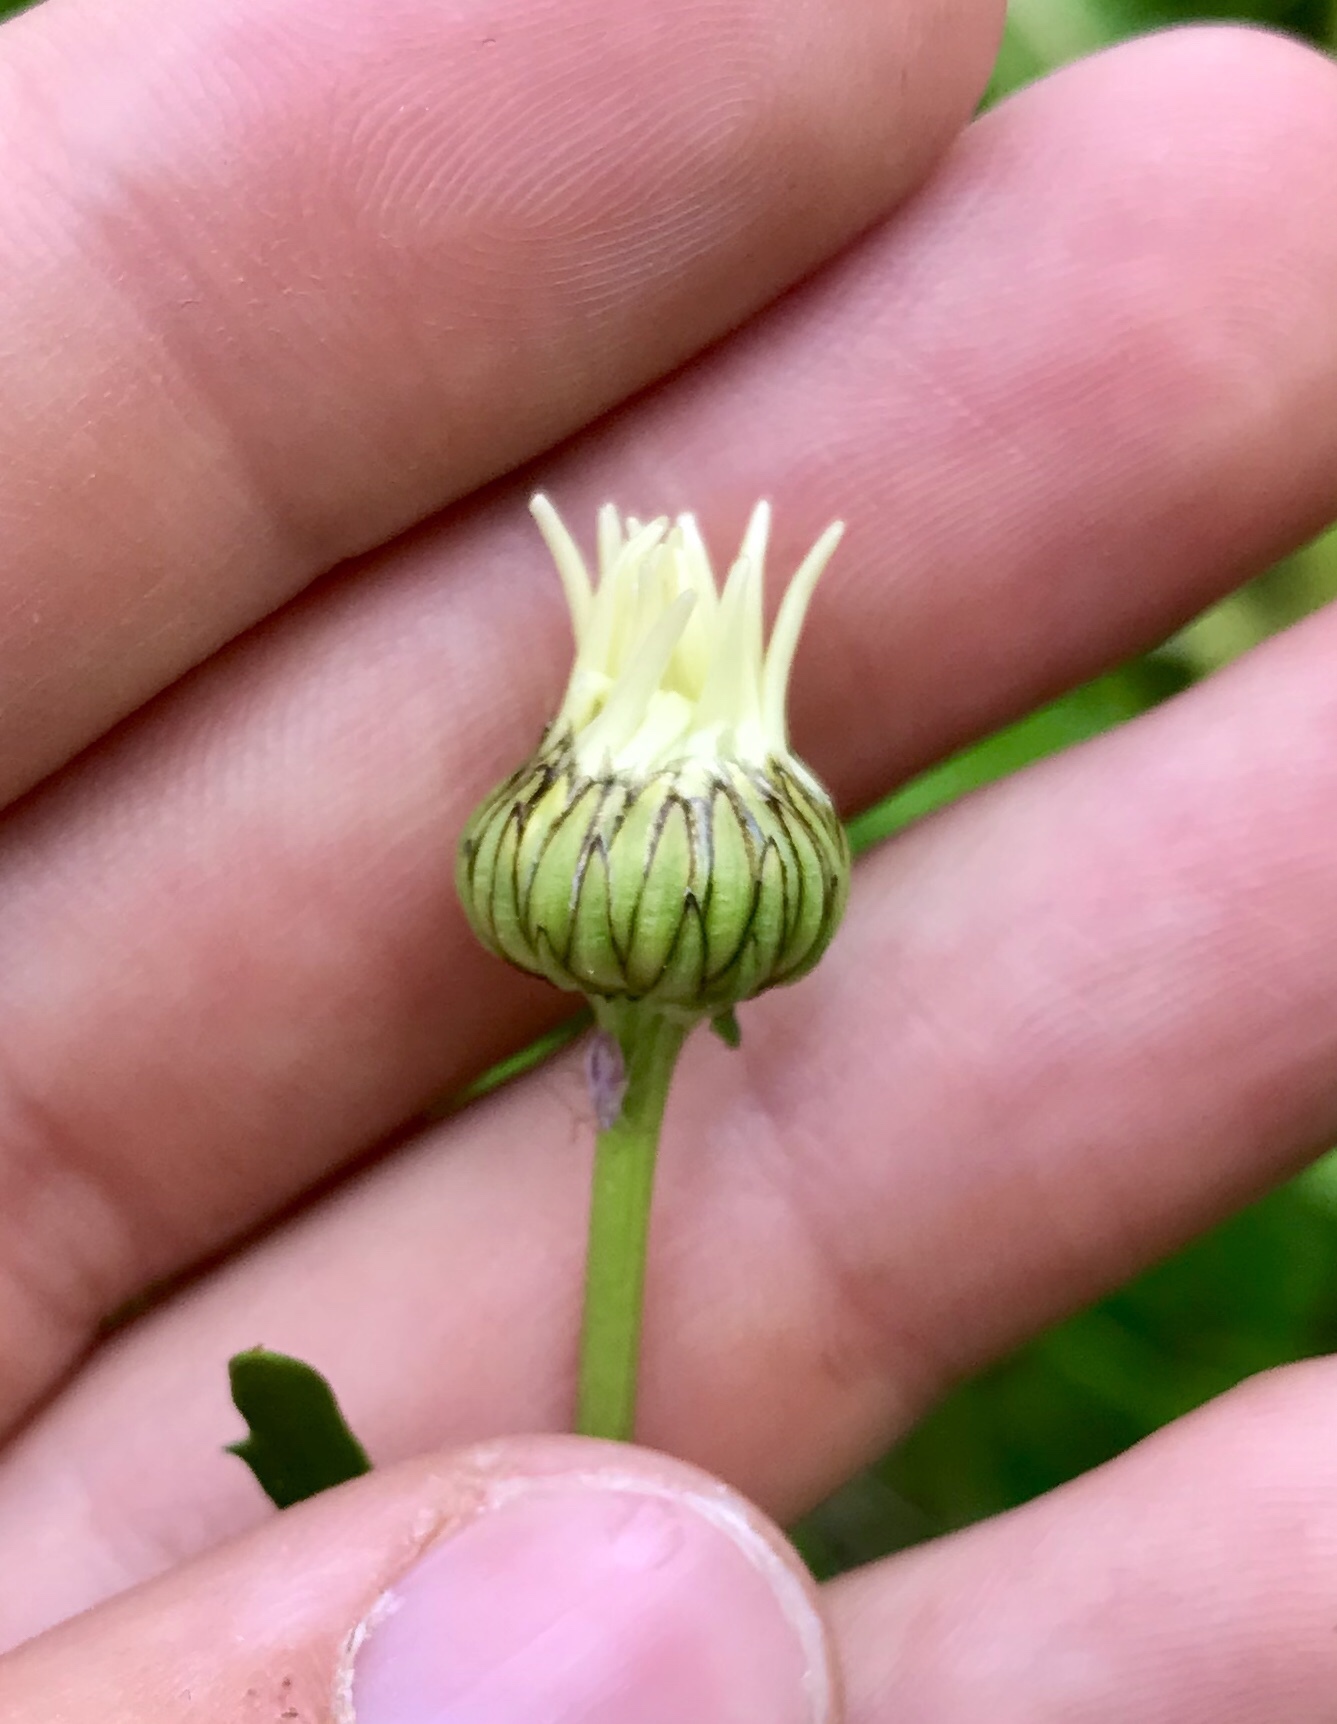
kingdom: Plantae
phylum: Tracheophyta
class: Magnoliopsida
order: Asterales
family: Asteraceae
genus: Leucanthemum
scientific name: Leucanthemum vulgare
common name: Oxeye daisy
